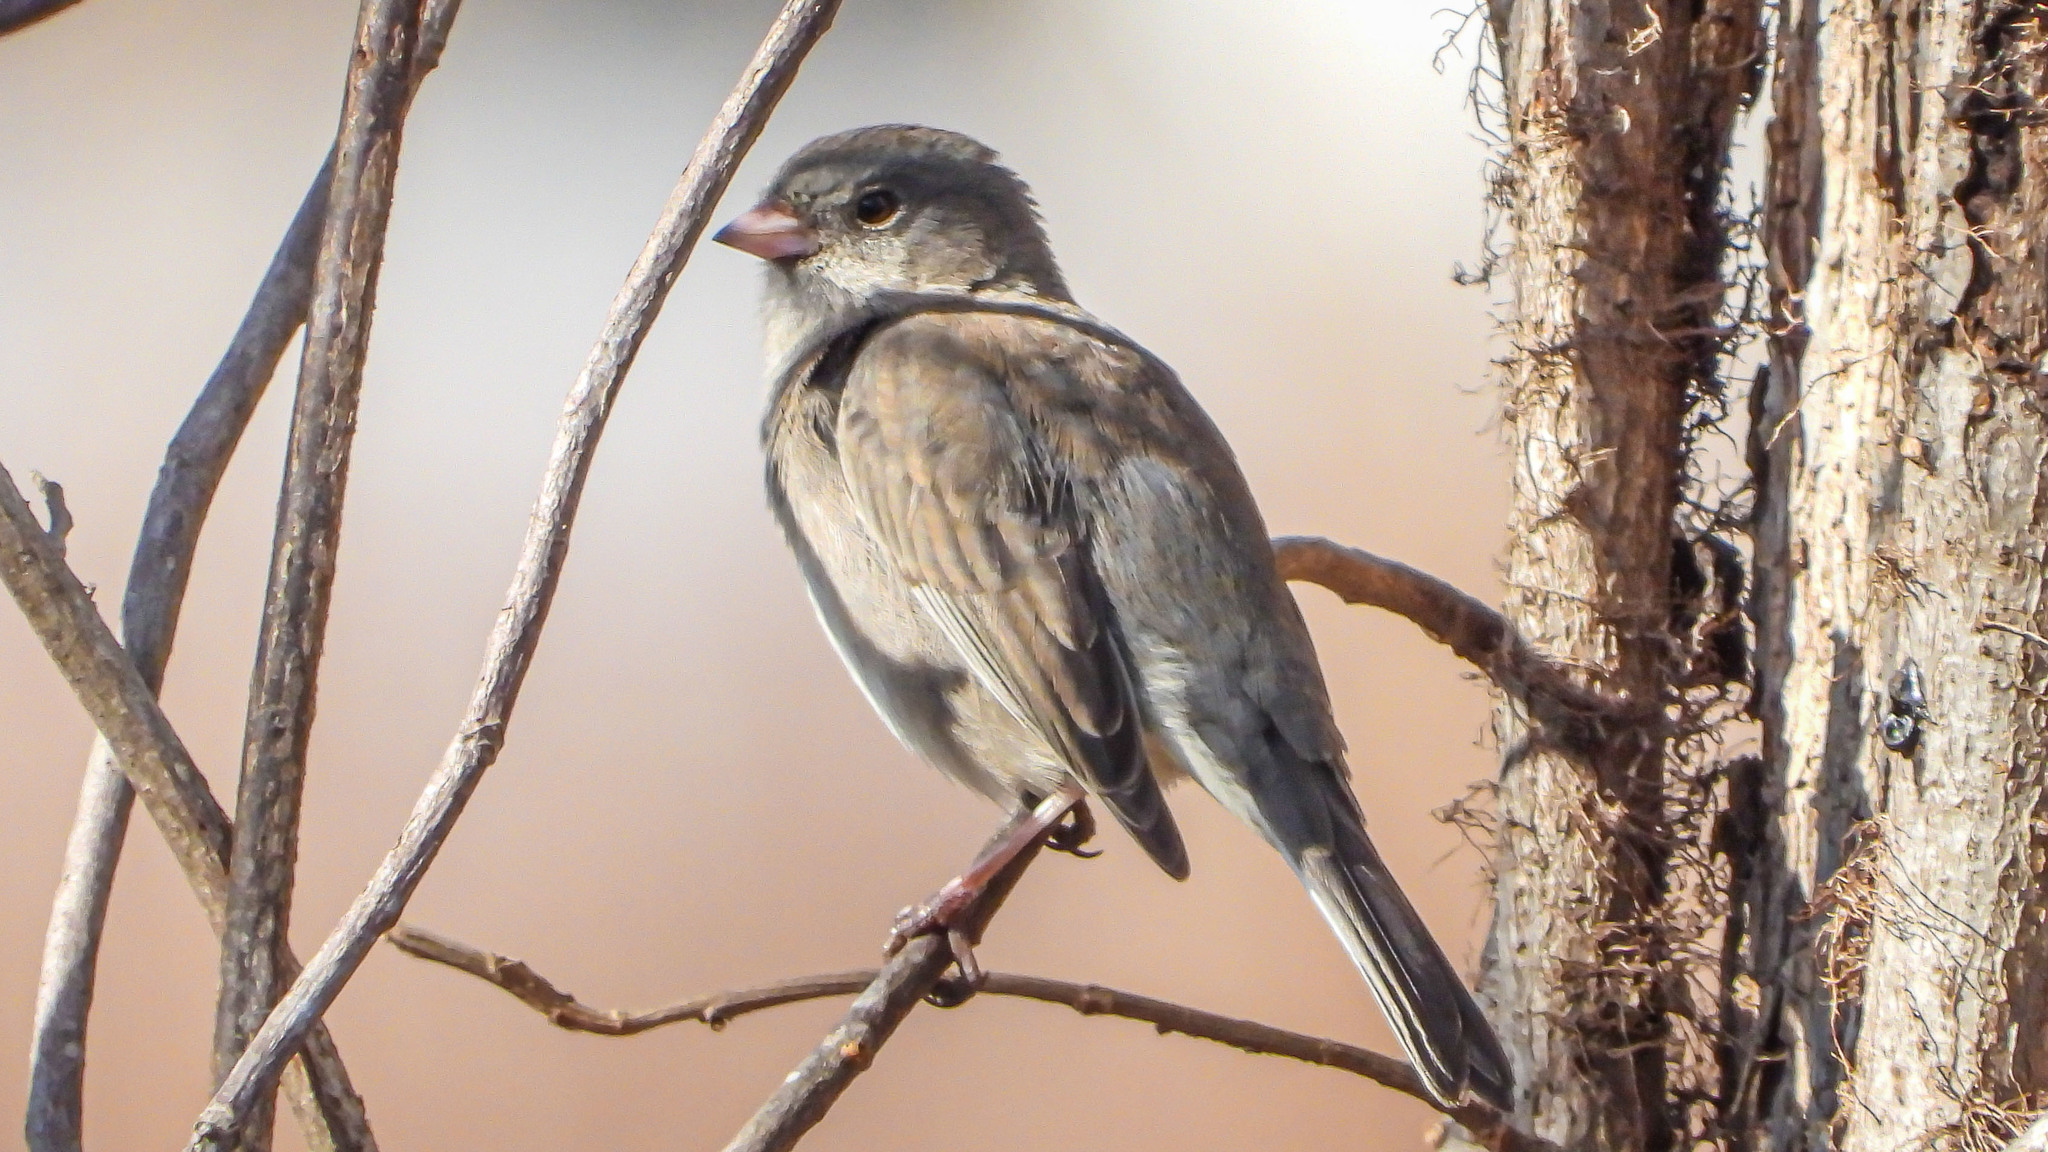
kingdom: Animalia
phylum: Chordata
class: Aves
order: Passeriformes
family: Passerellidae
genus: Junco
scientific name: Junco hyemalis
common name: Dark-eyed junco
